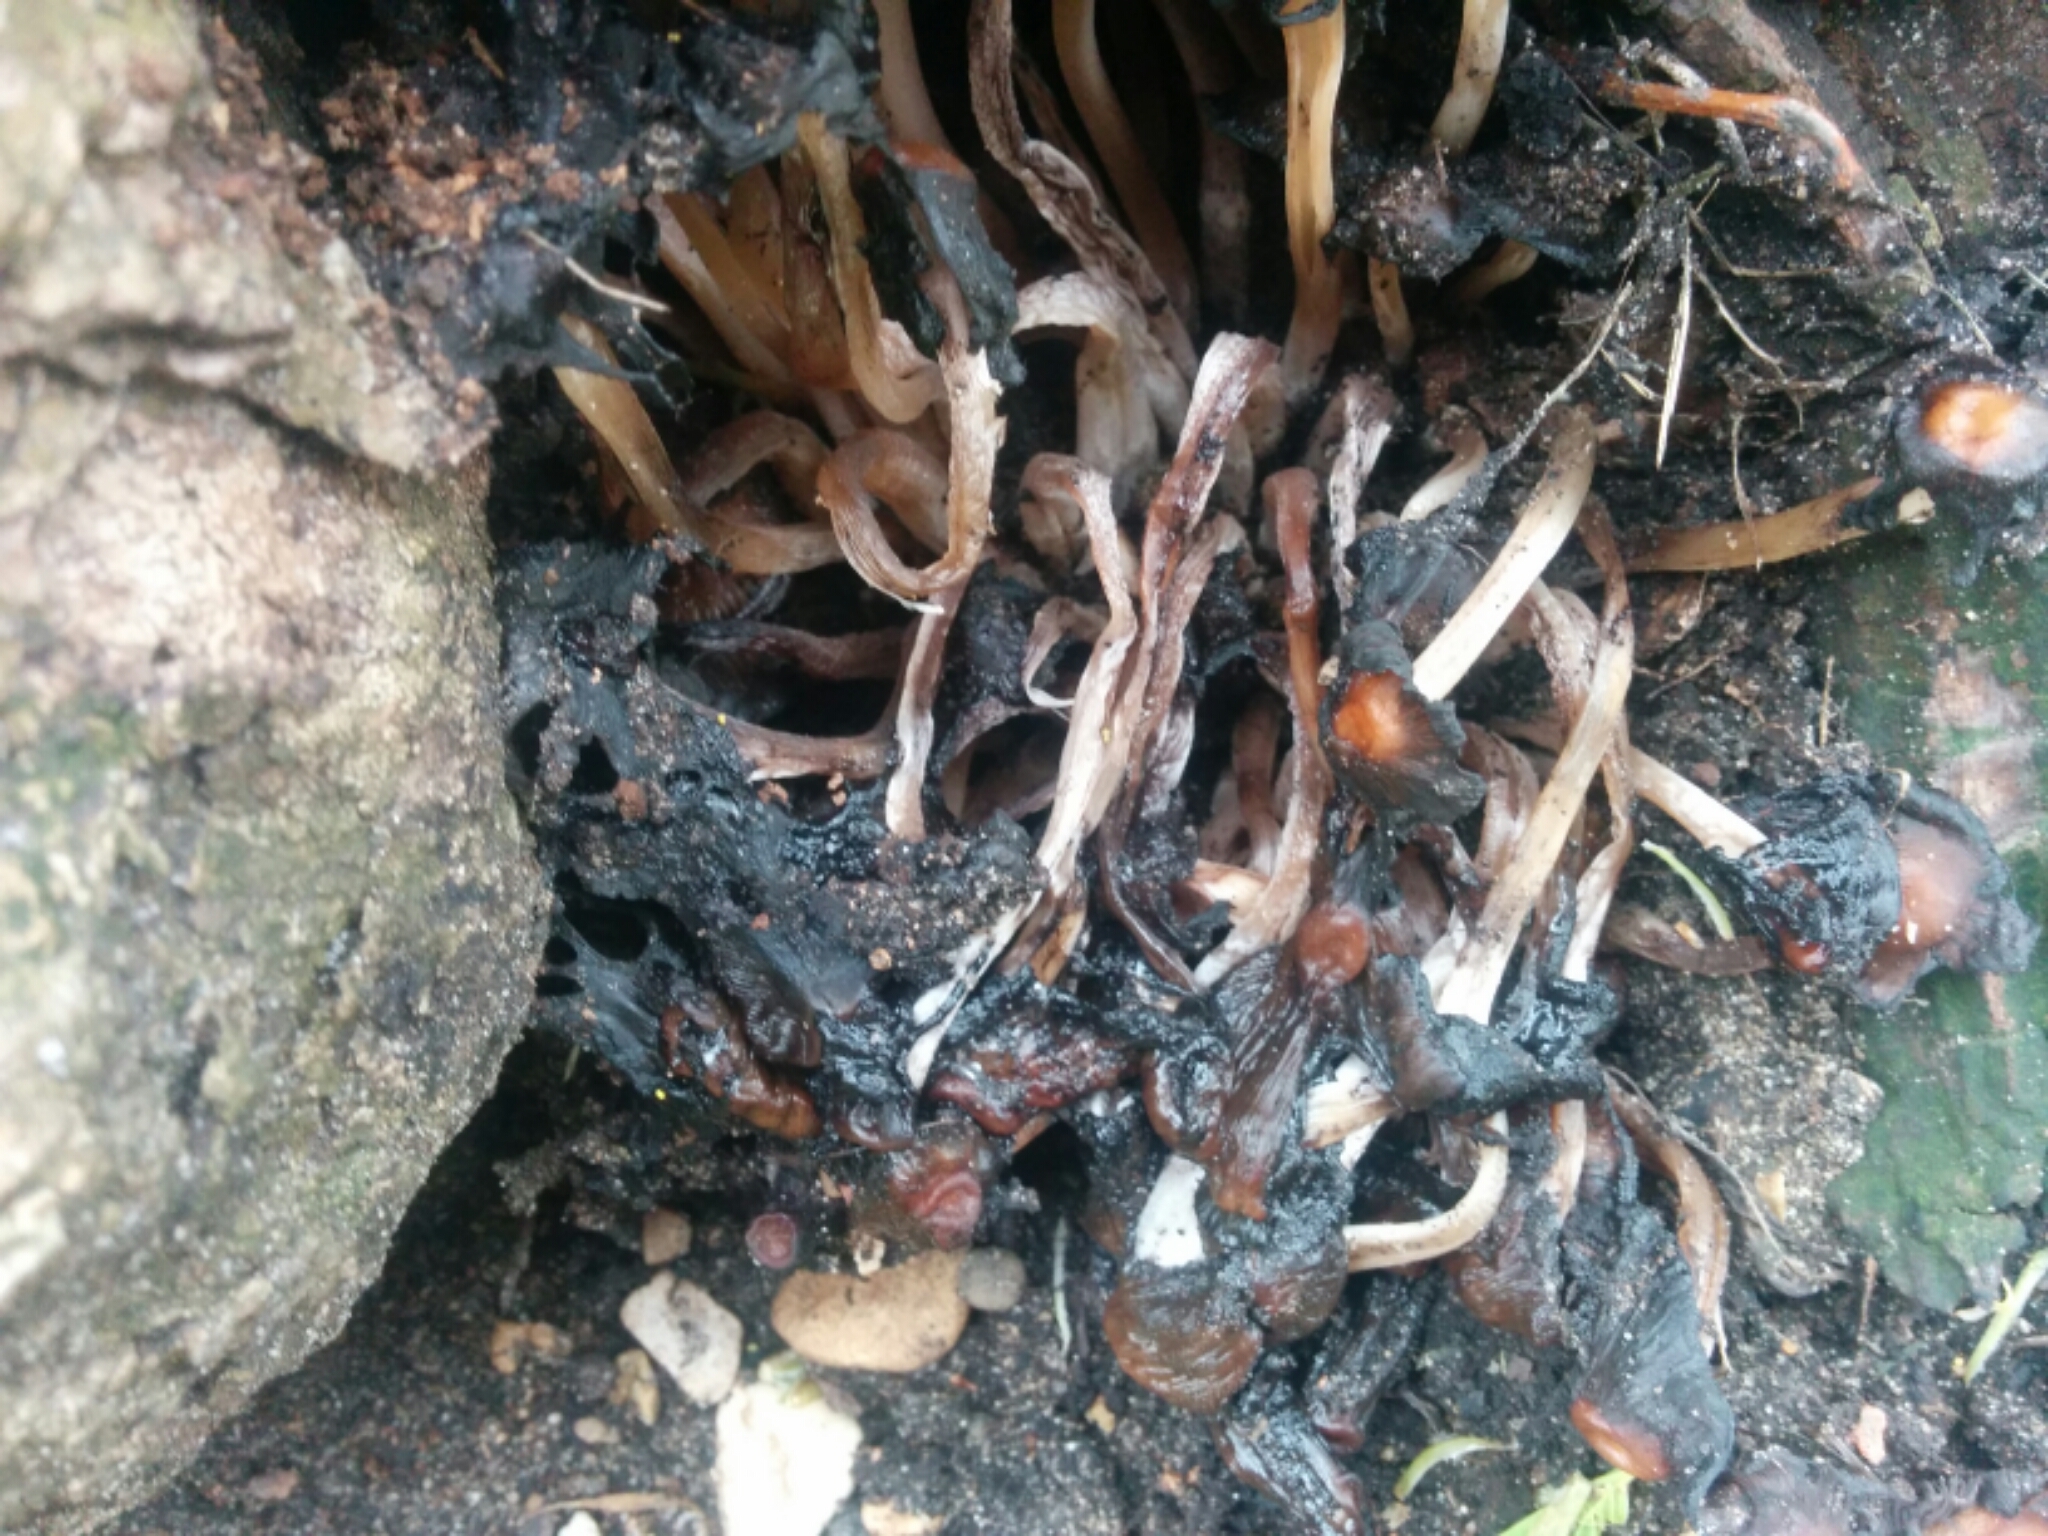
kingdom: Fungi
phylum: Basidiomycota
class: Agaricomycetes
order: Agaricales
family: Psathyrellaceae
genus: Coprinellus
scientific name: Coprinellus micaceus
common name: Glistening ink-cap
